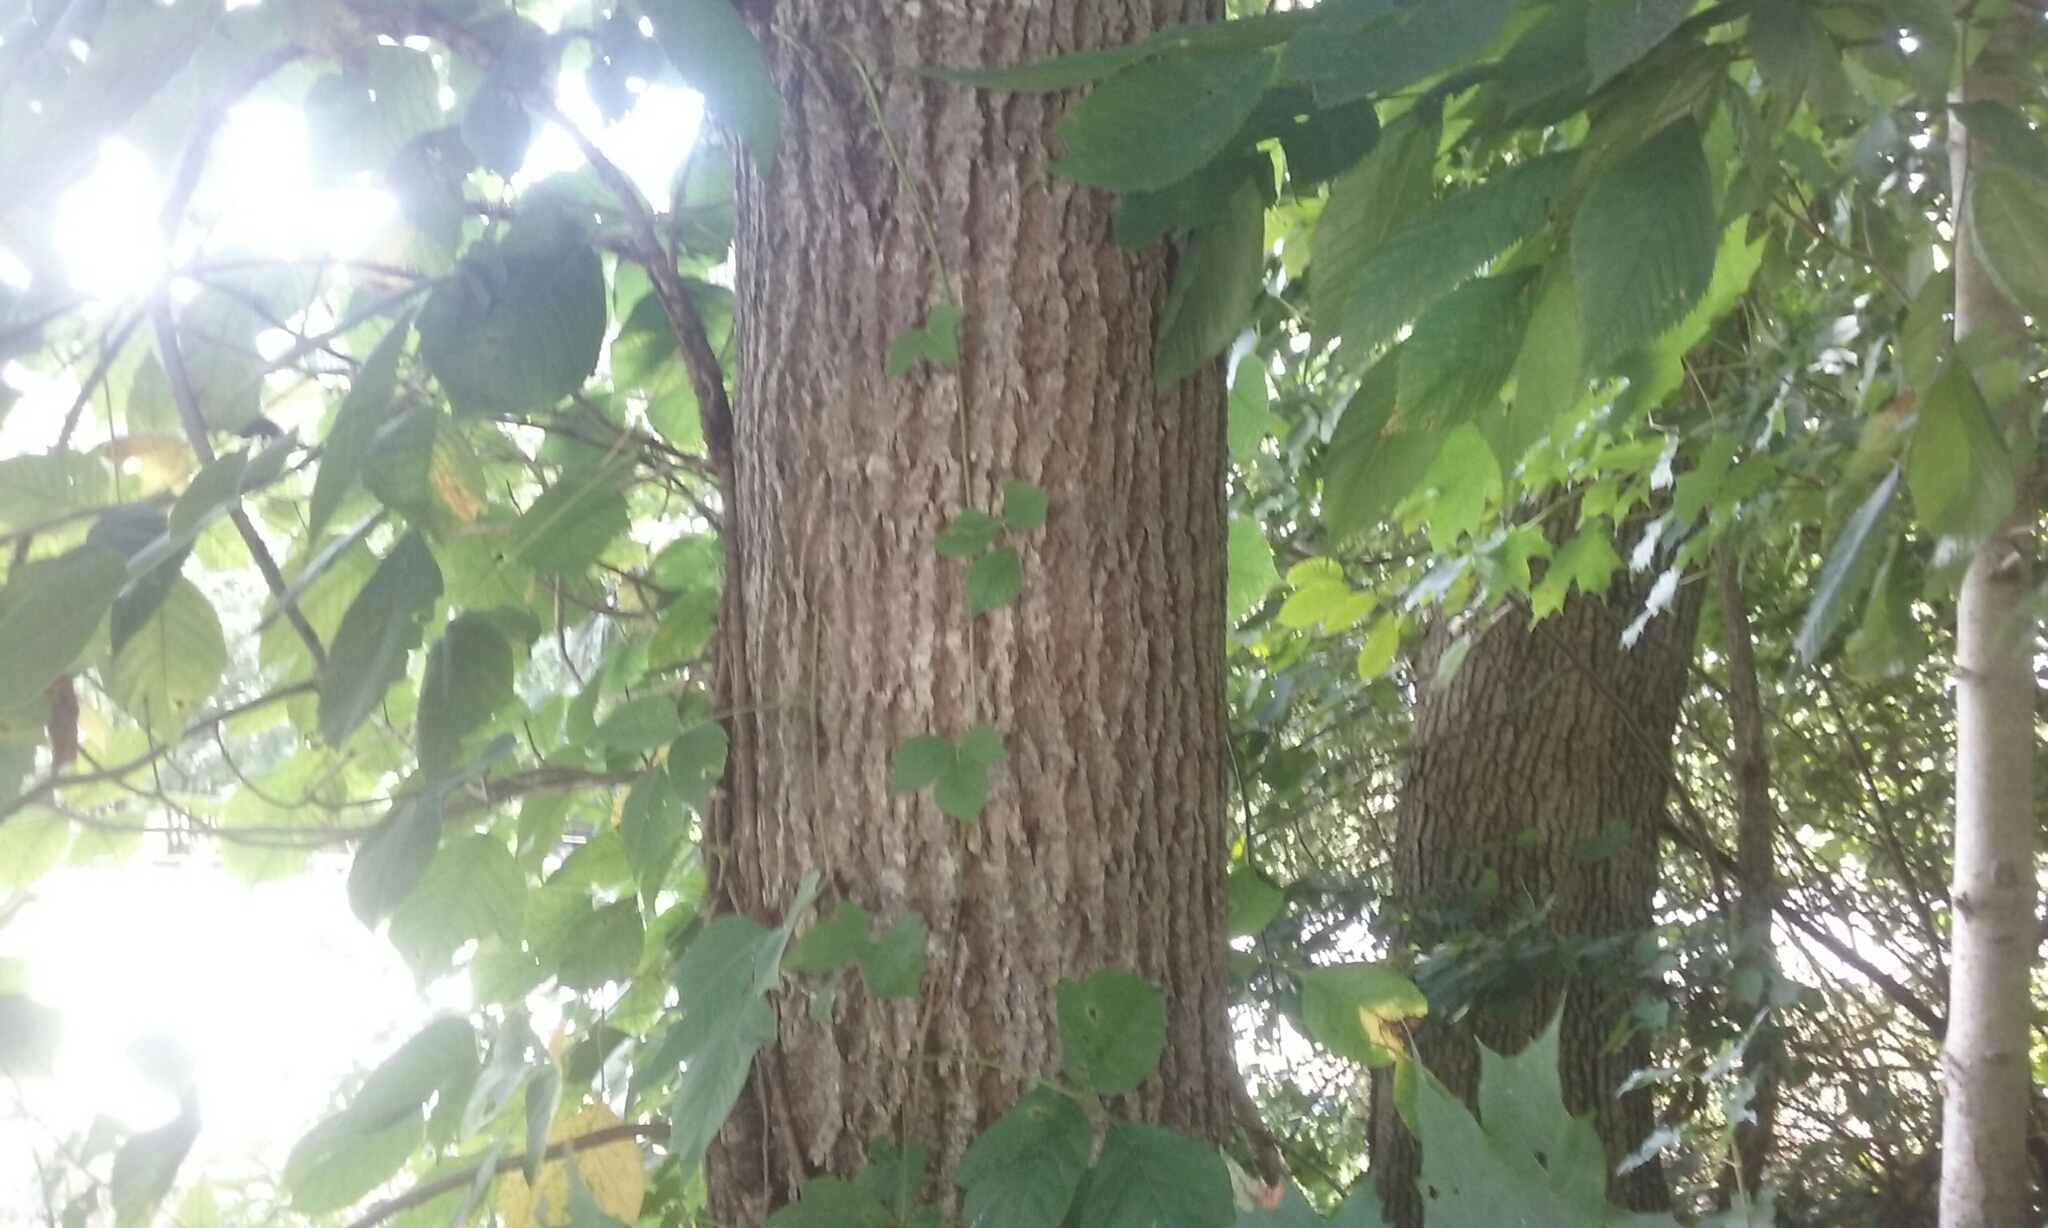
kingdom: Plantae
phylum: Tracheophyta
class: Magnoliopsida
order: Sapindales
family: Sapindaceae
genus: Acer
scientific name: Acer saccharum
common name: Sugar maple
